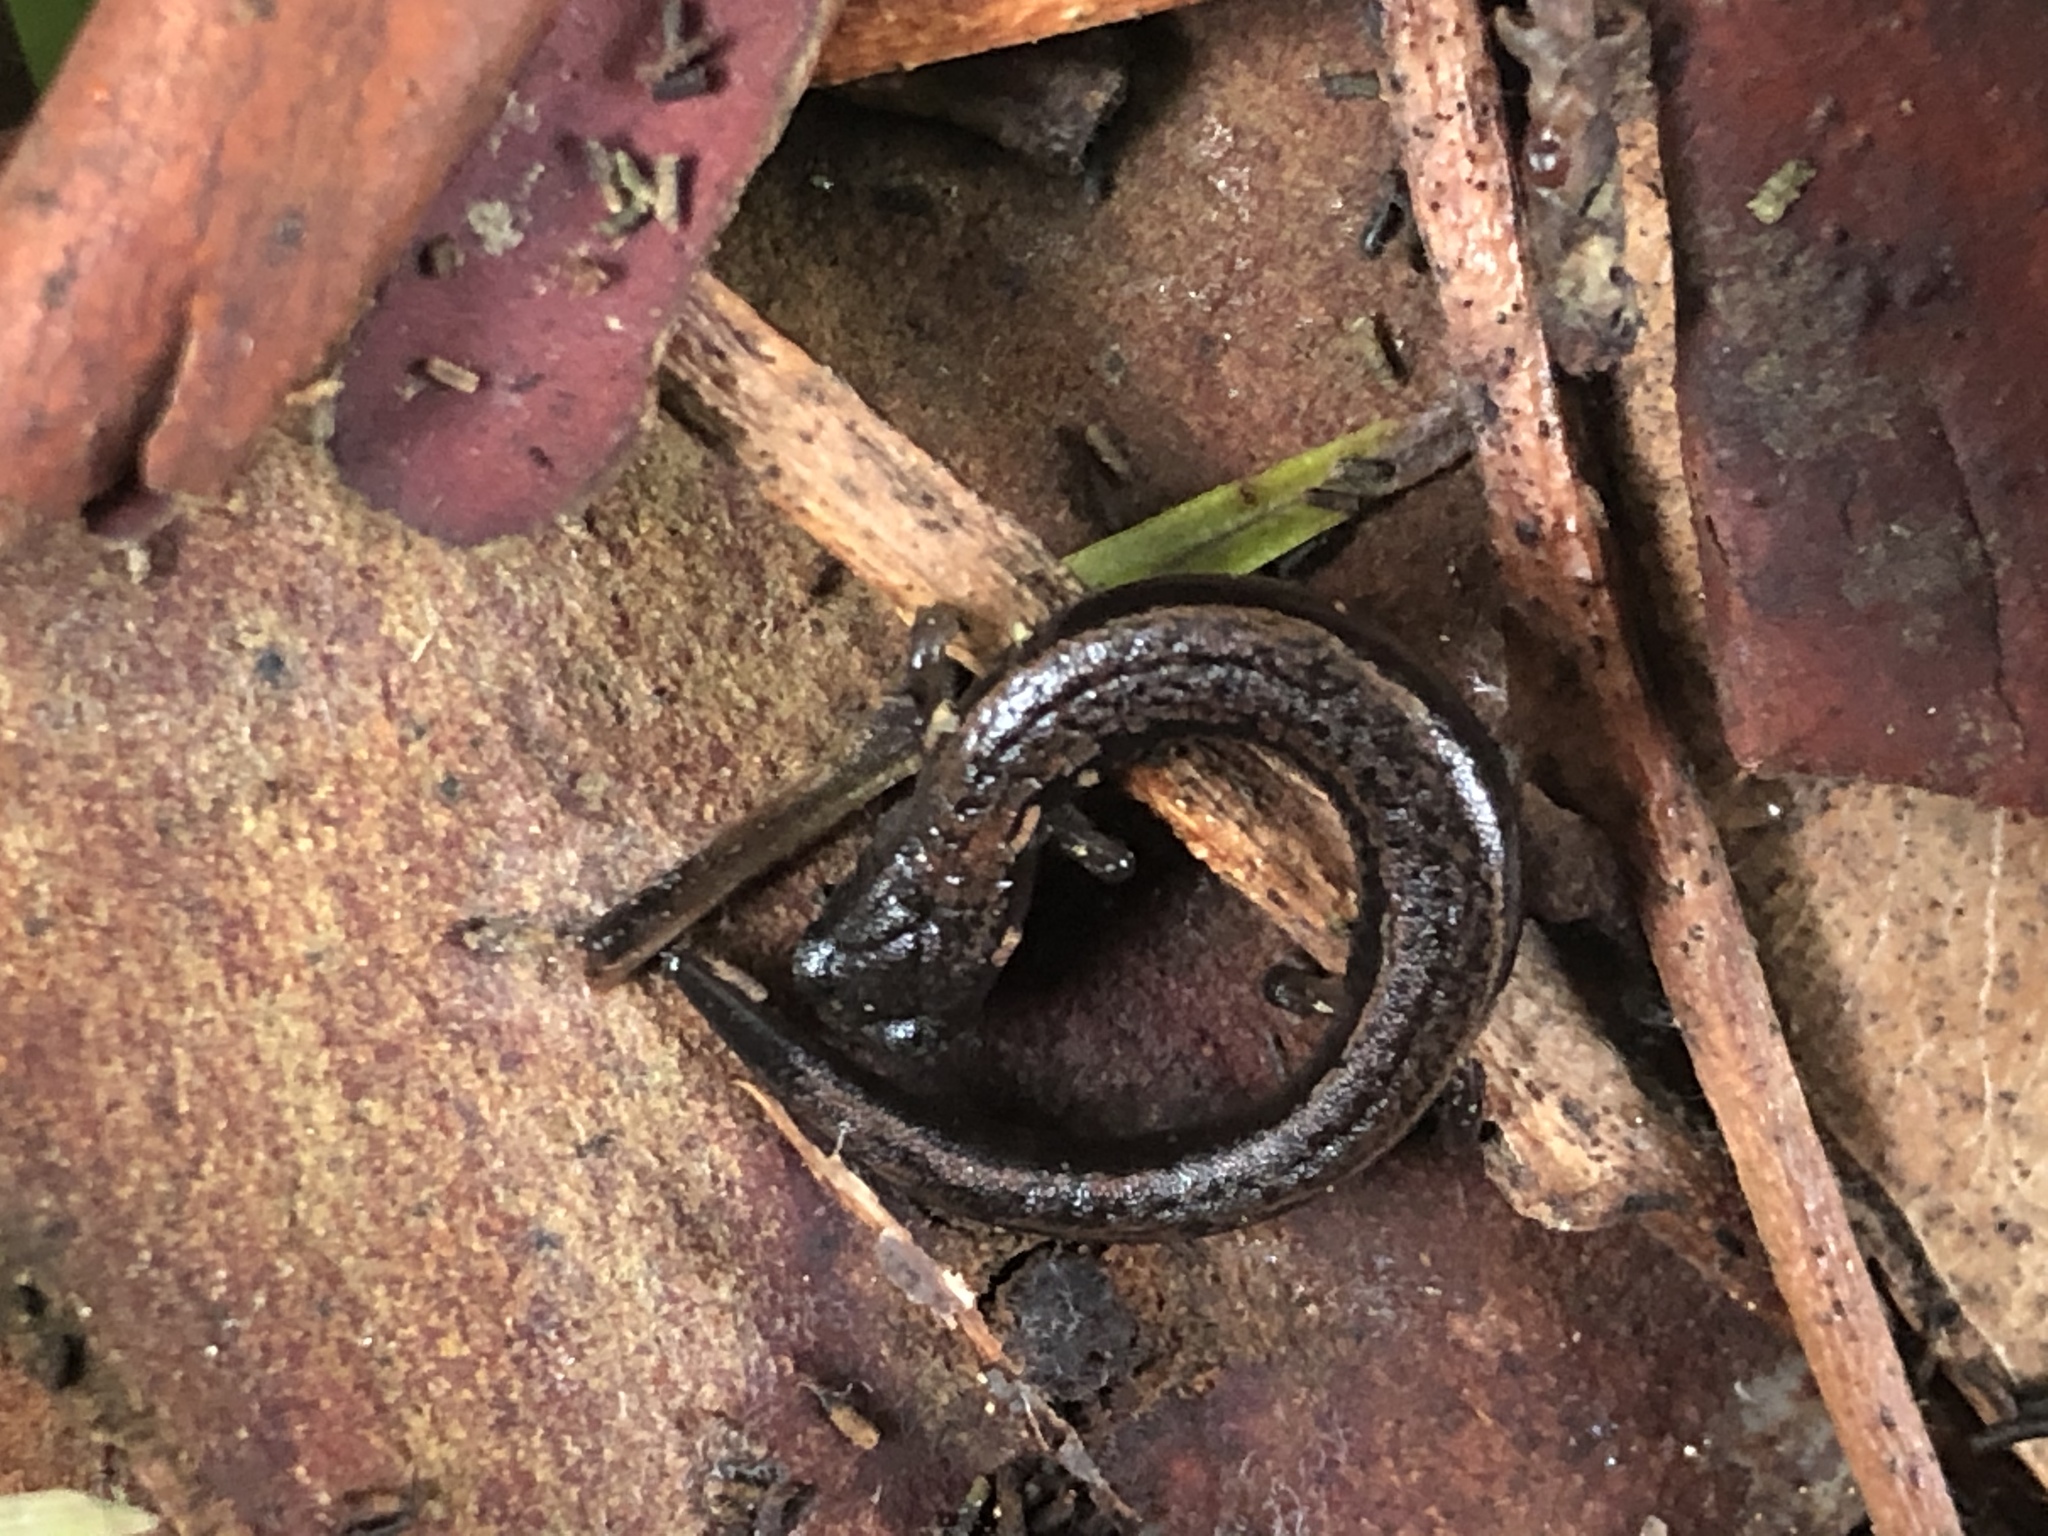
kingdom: Animalia
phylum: Chordata
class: Amphibia
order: Caudata
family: Plethodontidae
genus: Batrachoseps
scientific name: Batrachoseps attenuatus
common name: California slender salamander
